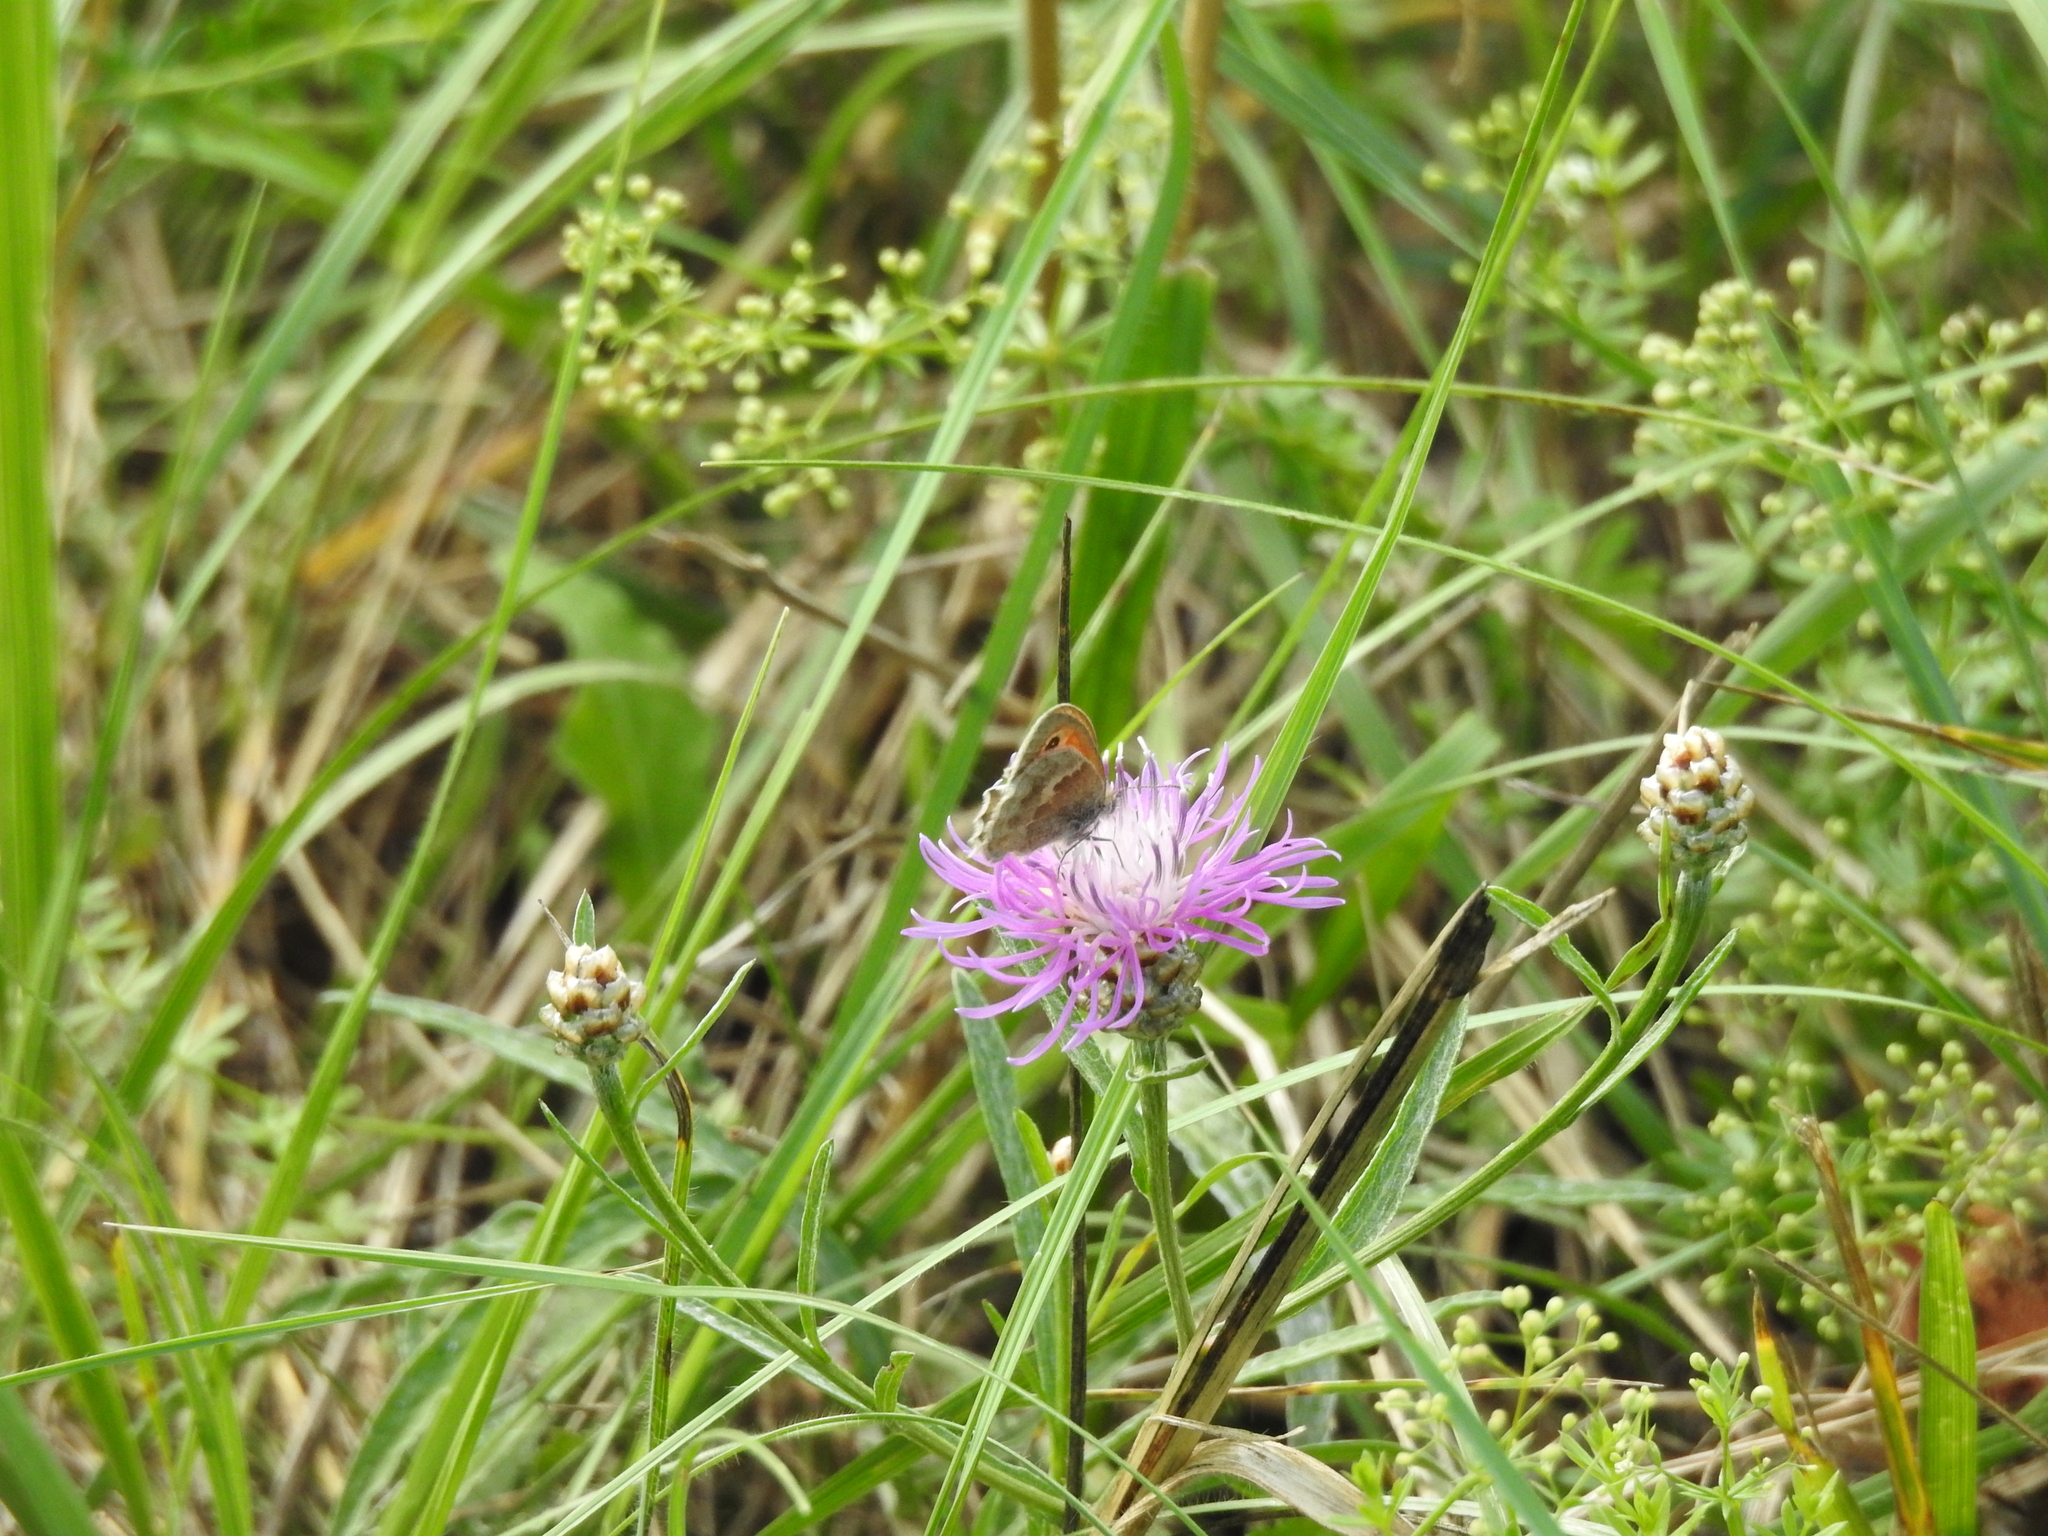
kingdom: Animalia
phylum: Arthropoda
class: Insecta
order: Lepidoptera
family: Nymphalidae
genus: Coenonympha
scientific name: Coenonympha pamphilus
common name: Small heath
